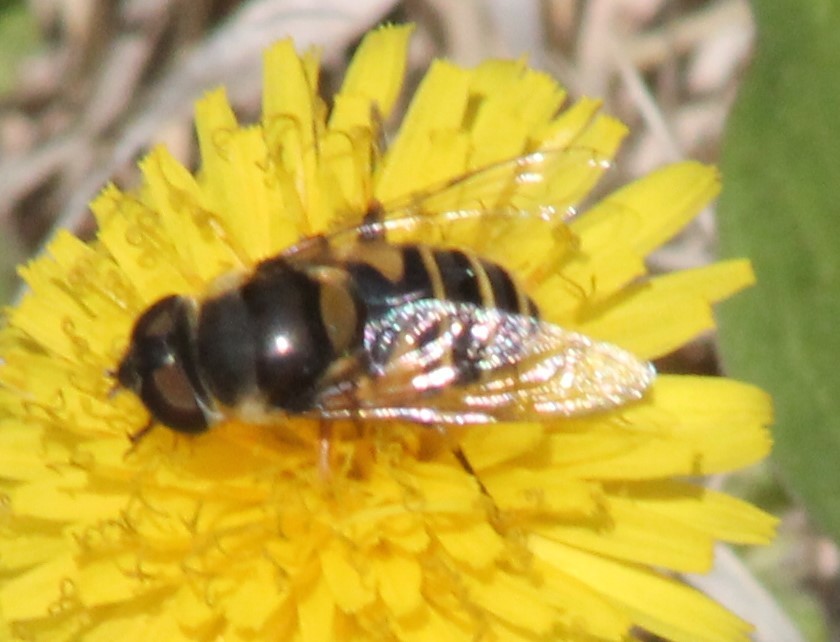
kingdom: Animalia
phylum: Arthropoda
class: Insecta
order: Diptera
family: Syrphidae
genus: Eristalis
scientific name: Eristalis transversa
